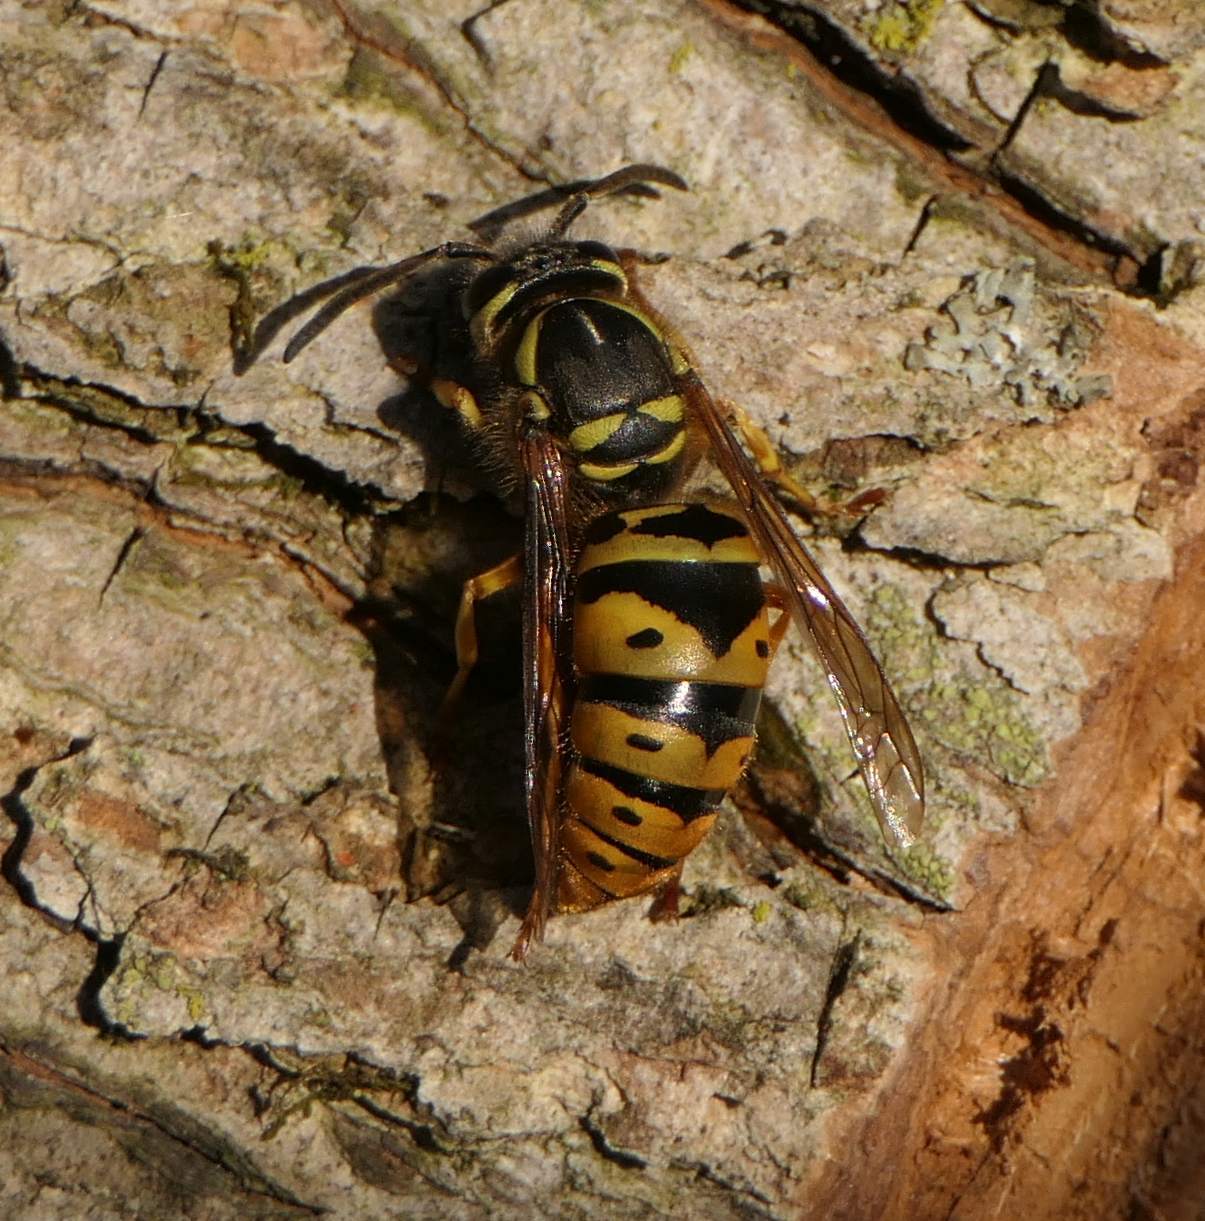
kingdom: Animalia
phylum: Arthropoda
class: Insecta
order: Hymenoptera
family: Vespidae
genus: Vespula
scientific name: Vespula maculifrons
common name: Eastern yellowjacket
